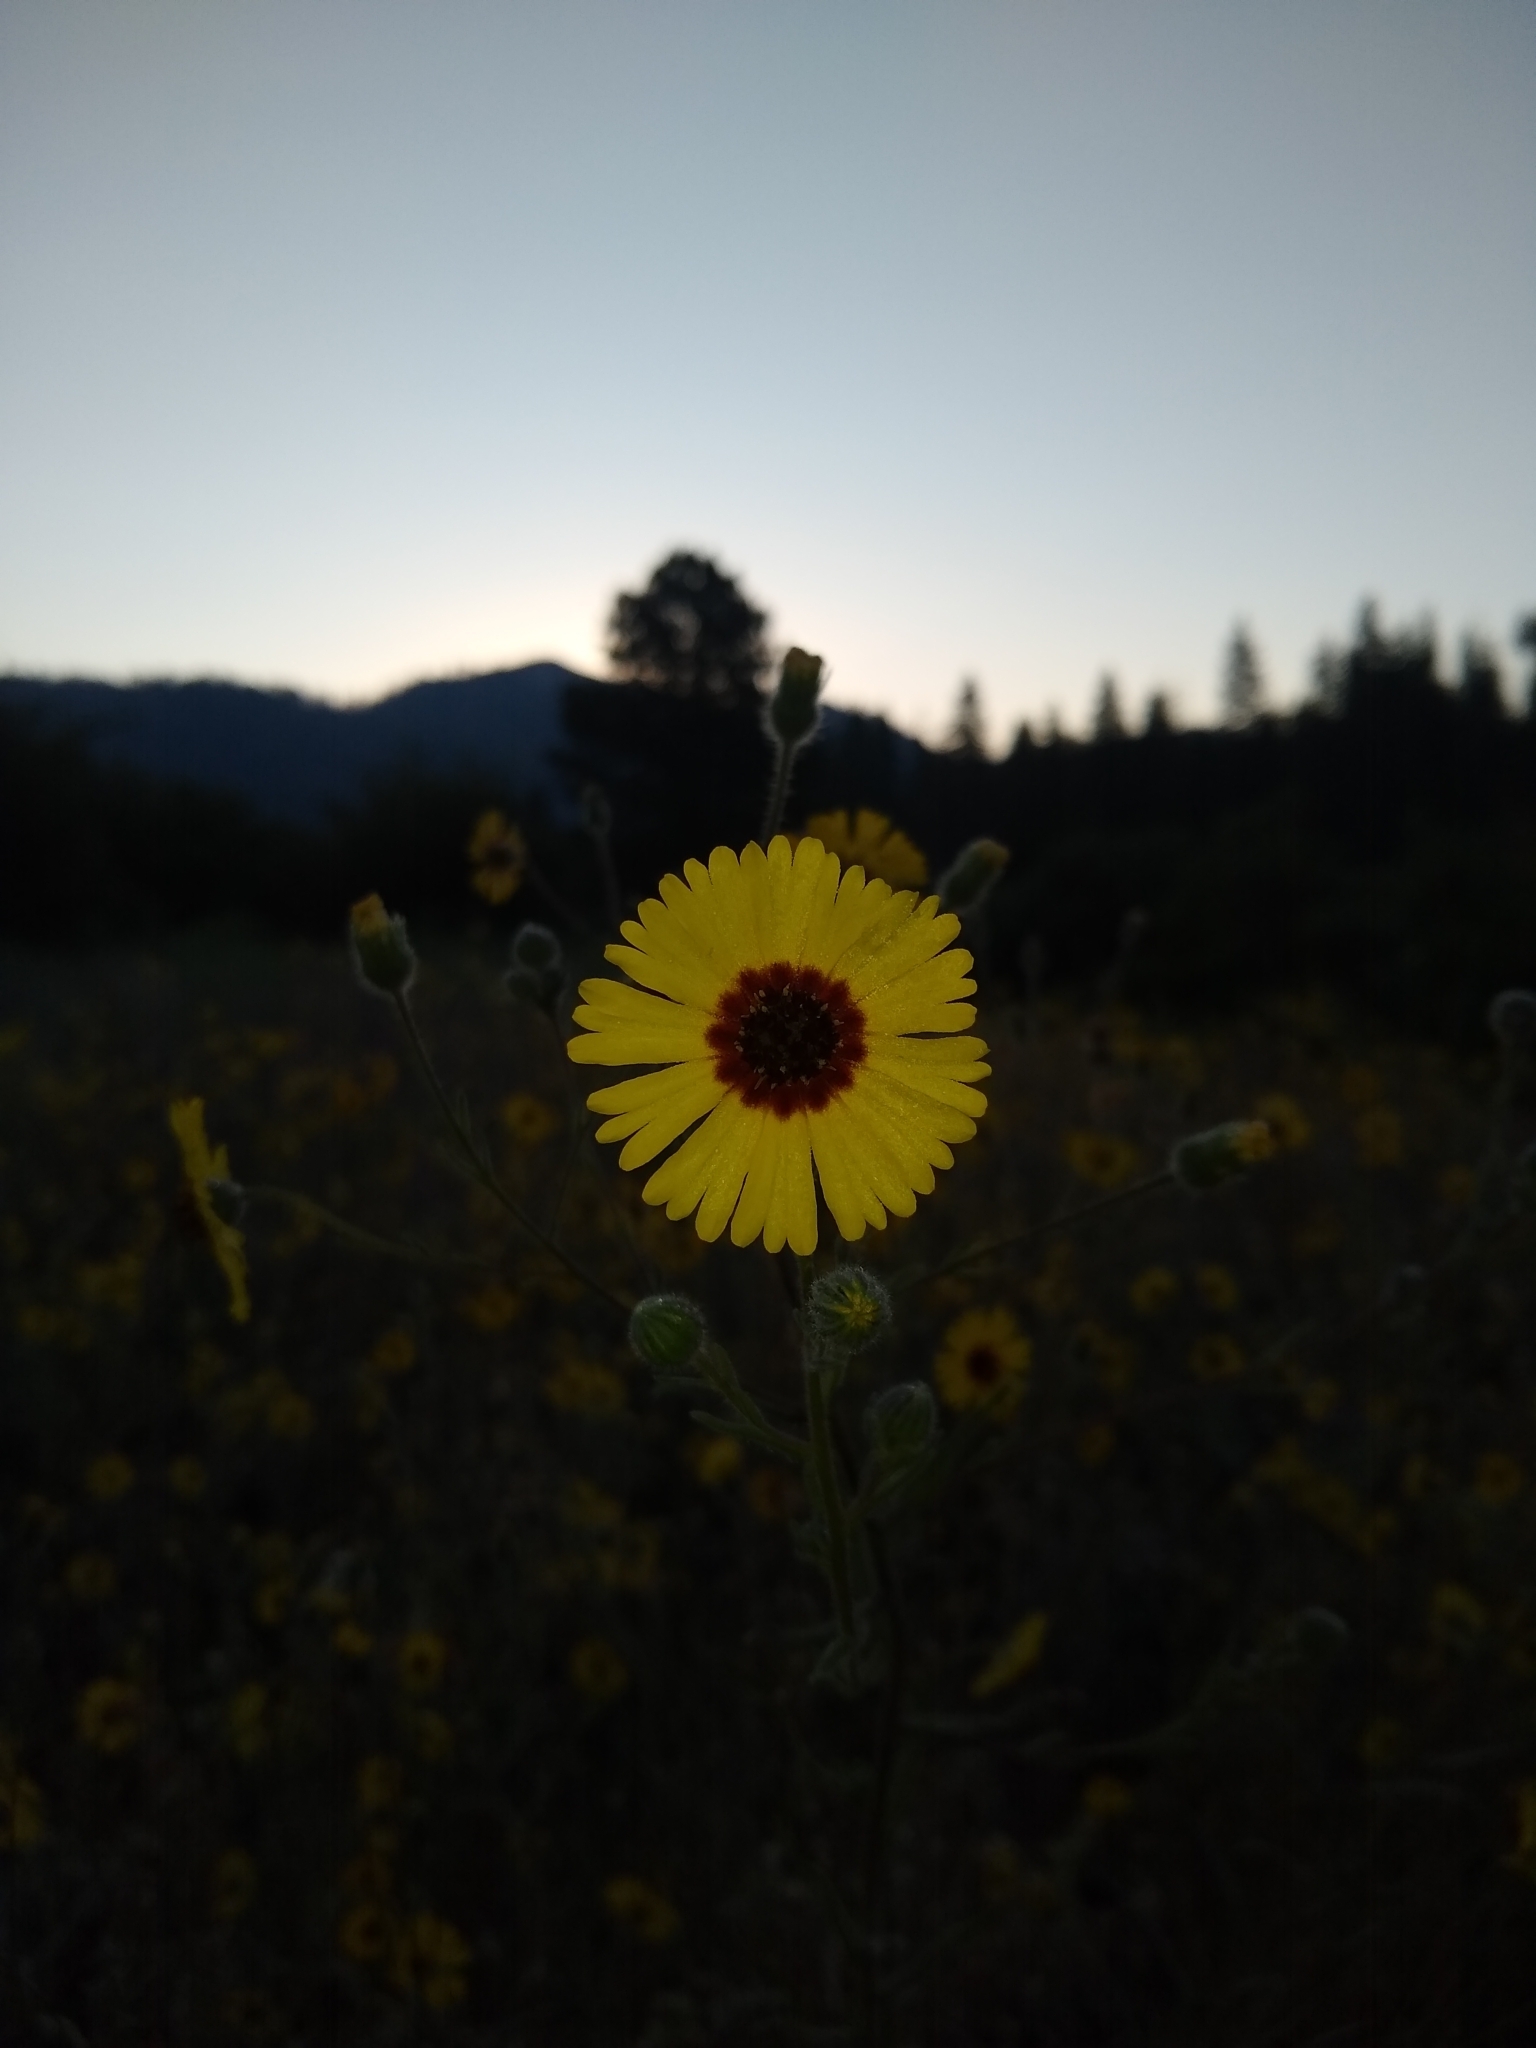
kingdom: Plantae
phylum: Tracheophyta
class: Magnoliopsida
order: Asterales
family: Asteraceae
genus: Madia
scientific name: Madia elegans
